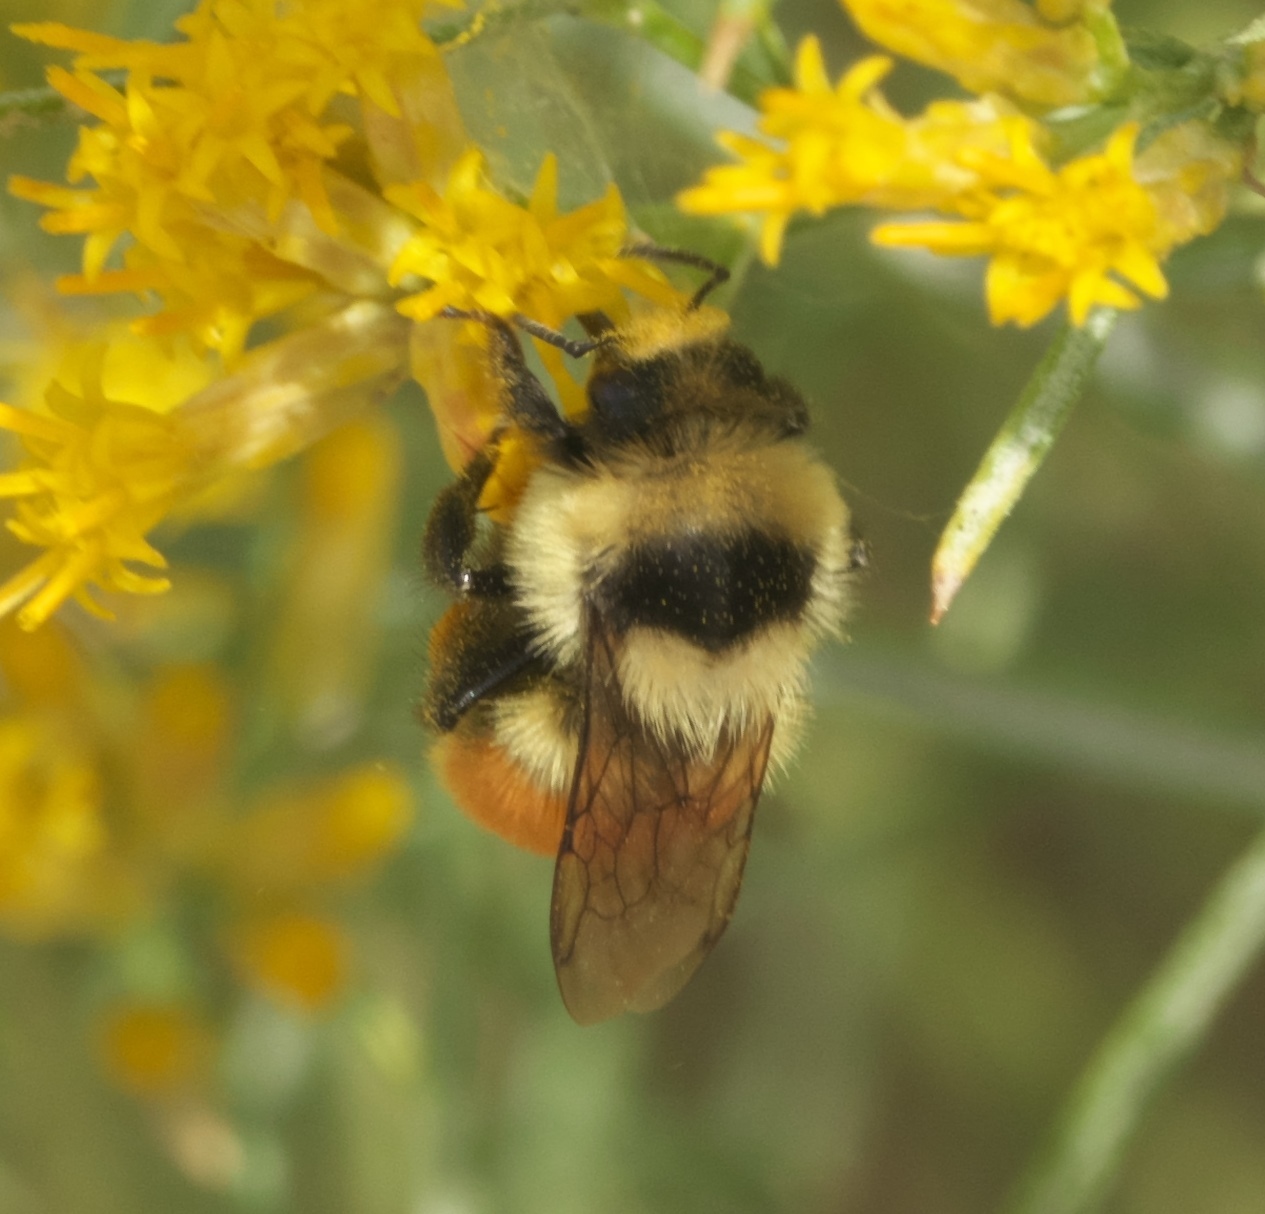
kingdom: Animalia
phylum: Arthropoda
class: Insecta
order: Hymenoptera
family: Apidae
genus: Bombus
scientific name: Bombus huntii
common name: Hunt bumble bee
